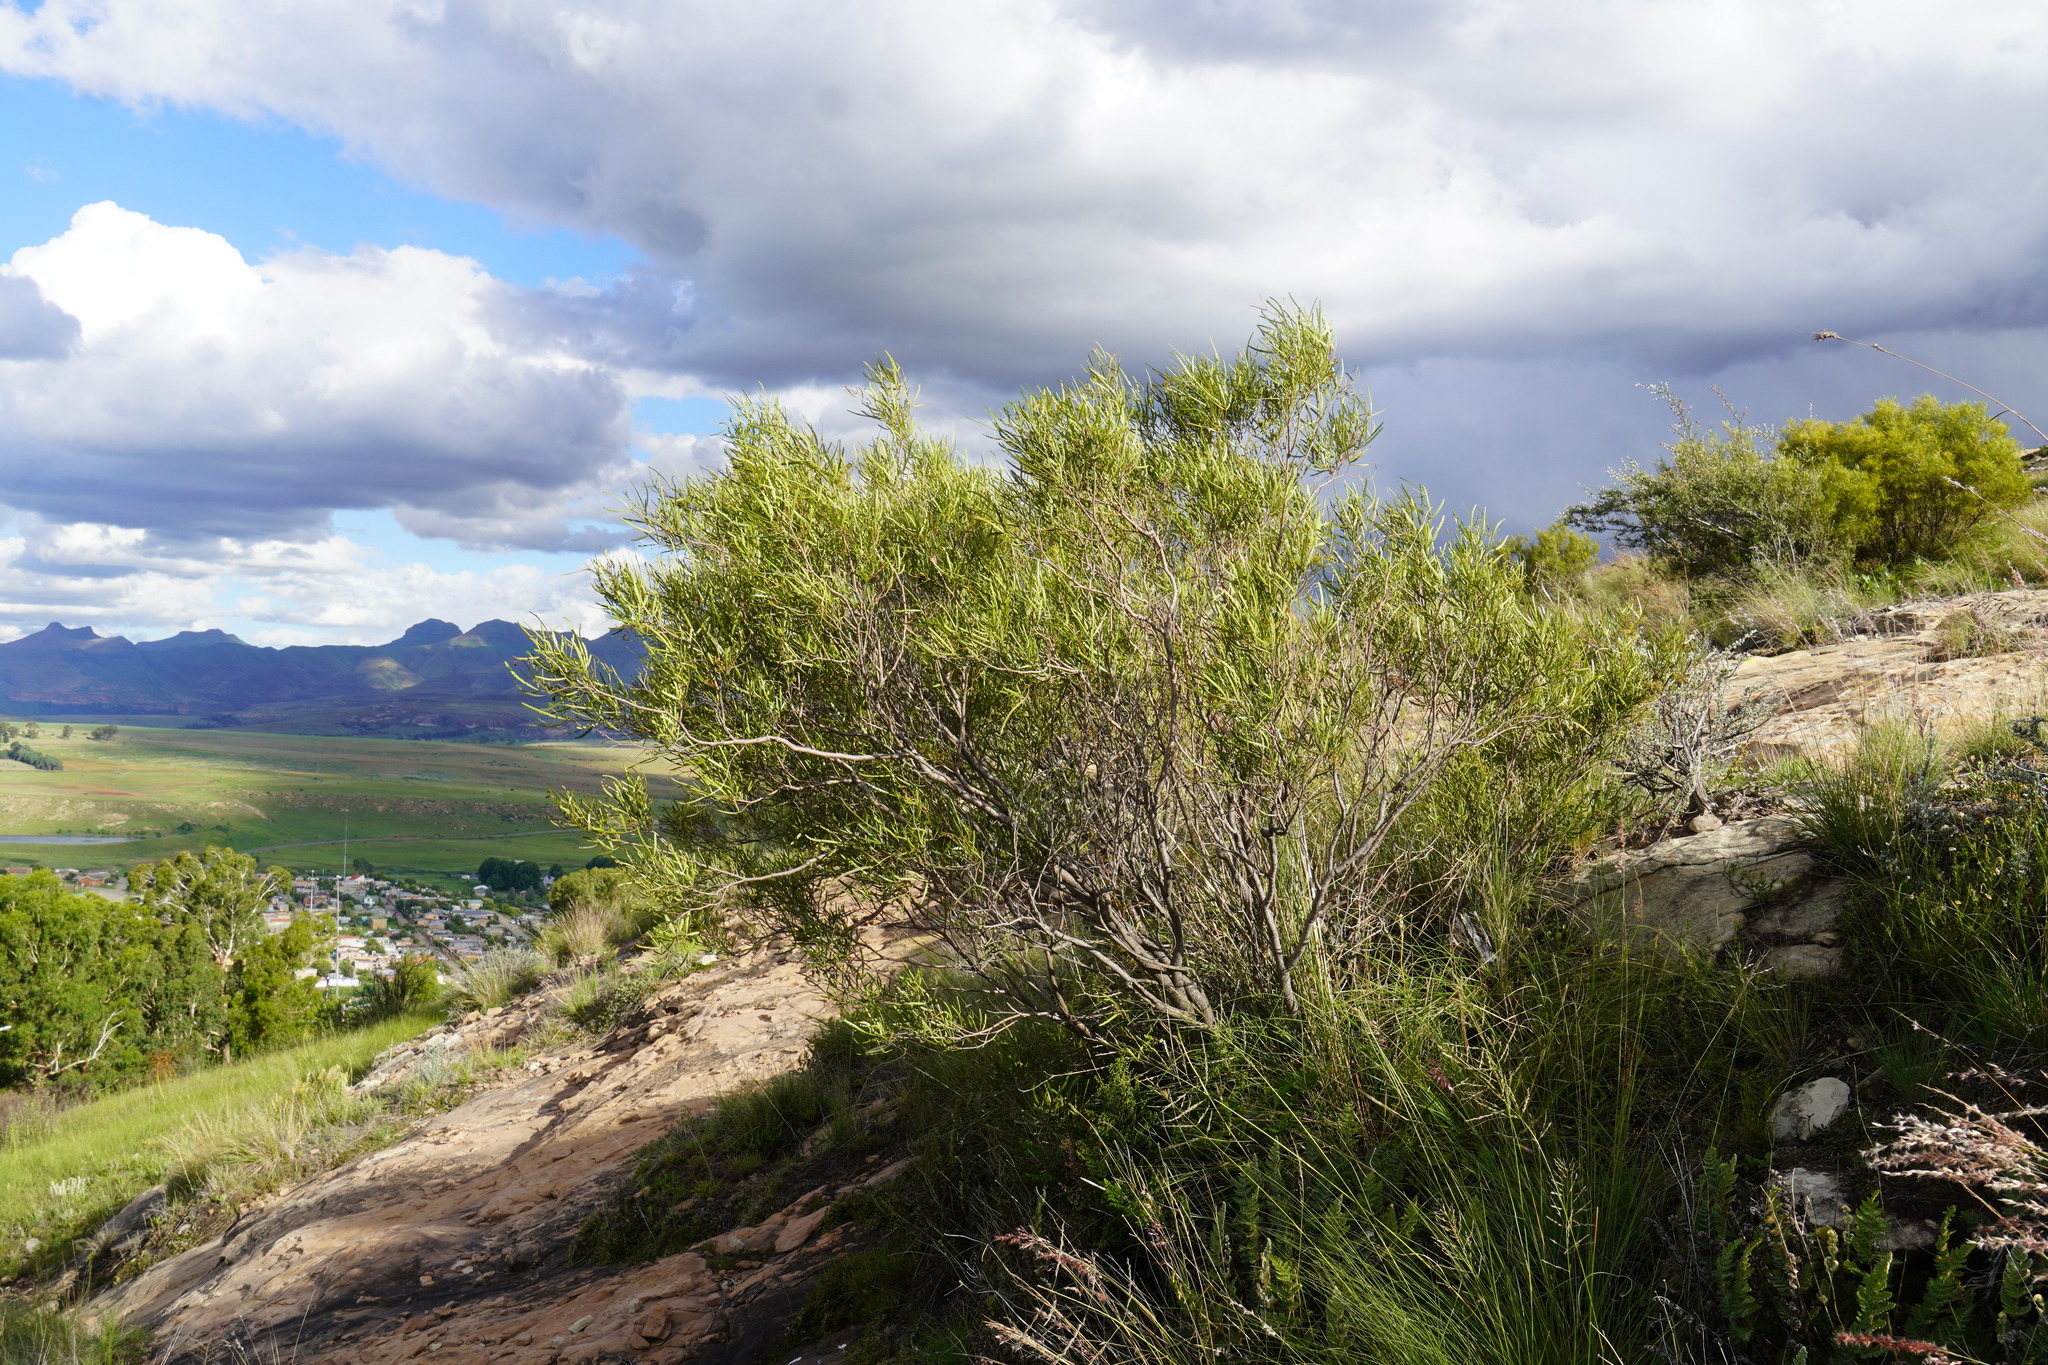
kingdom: Plantae
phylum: Tracheophyta
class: Magnoliopsida
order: Sapindales
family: Anacardiaceae
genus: Searsia
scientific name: Searsia erosa
